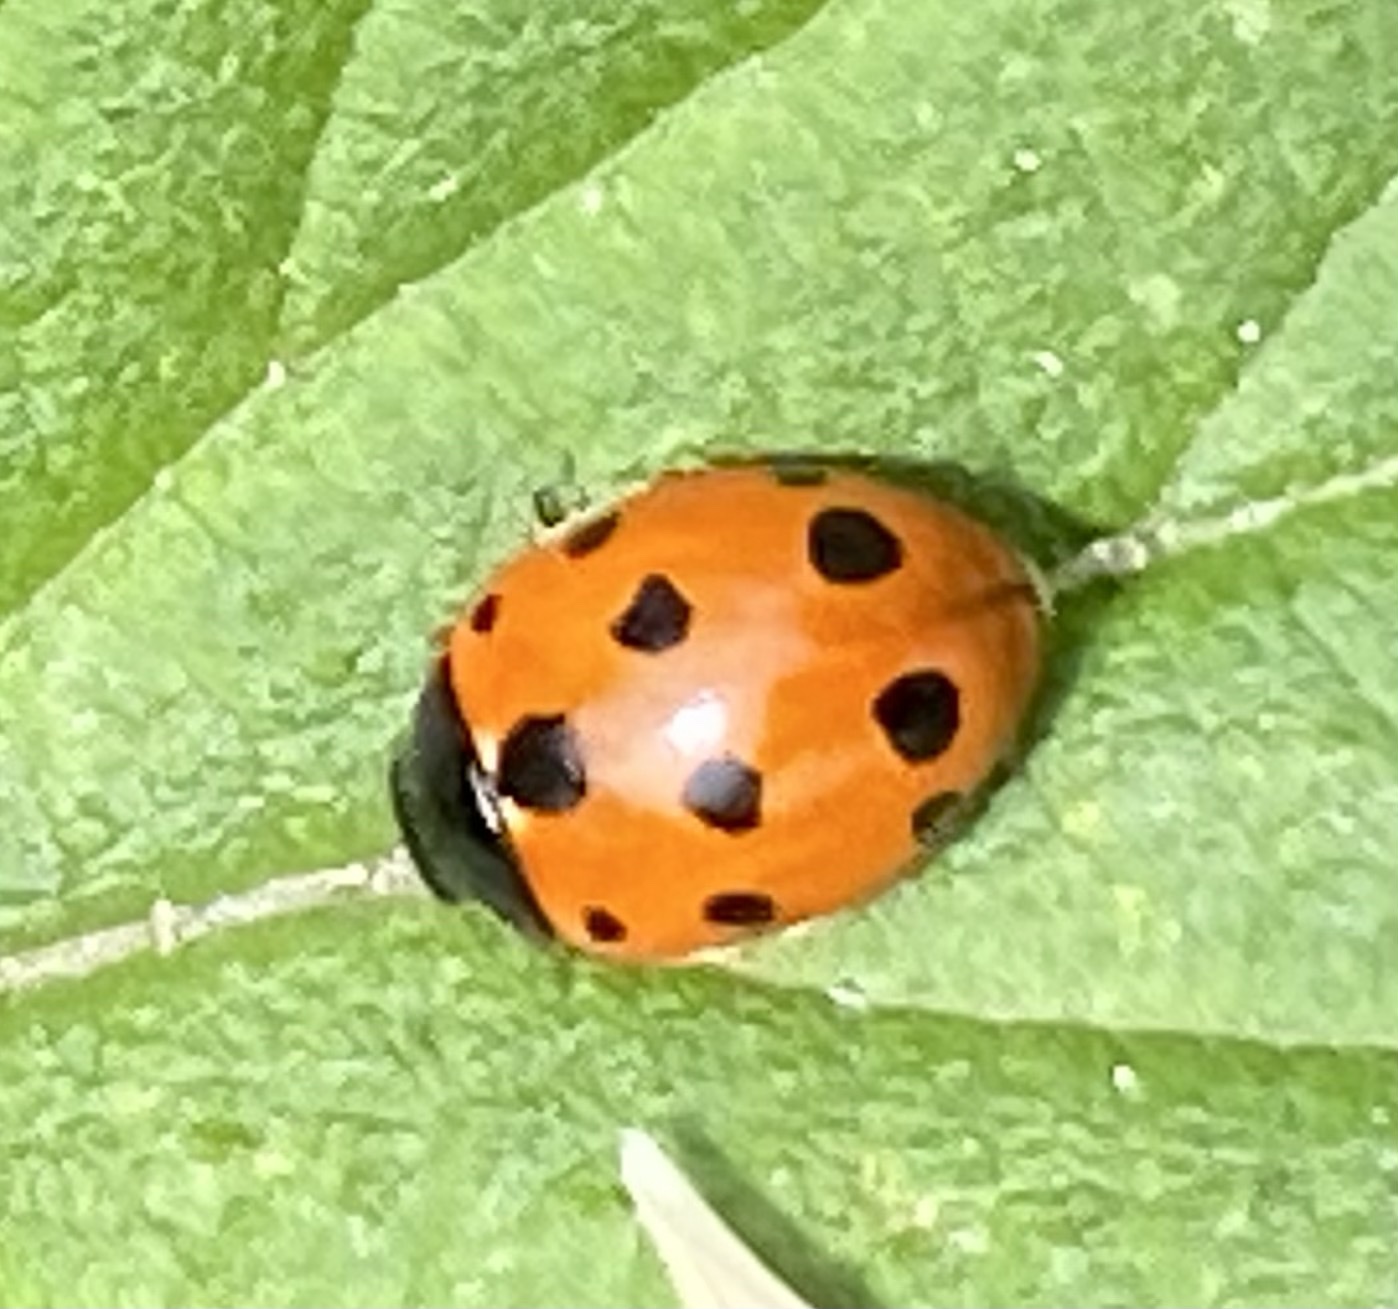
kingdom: Animalia
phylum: Arthropoda
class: Insecta
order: Coleoptera
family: Coccinellidae
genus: Coccinella
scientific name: Coccinella undecimpunctata
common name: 11-spot ladybird
